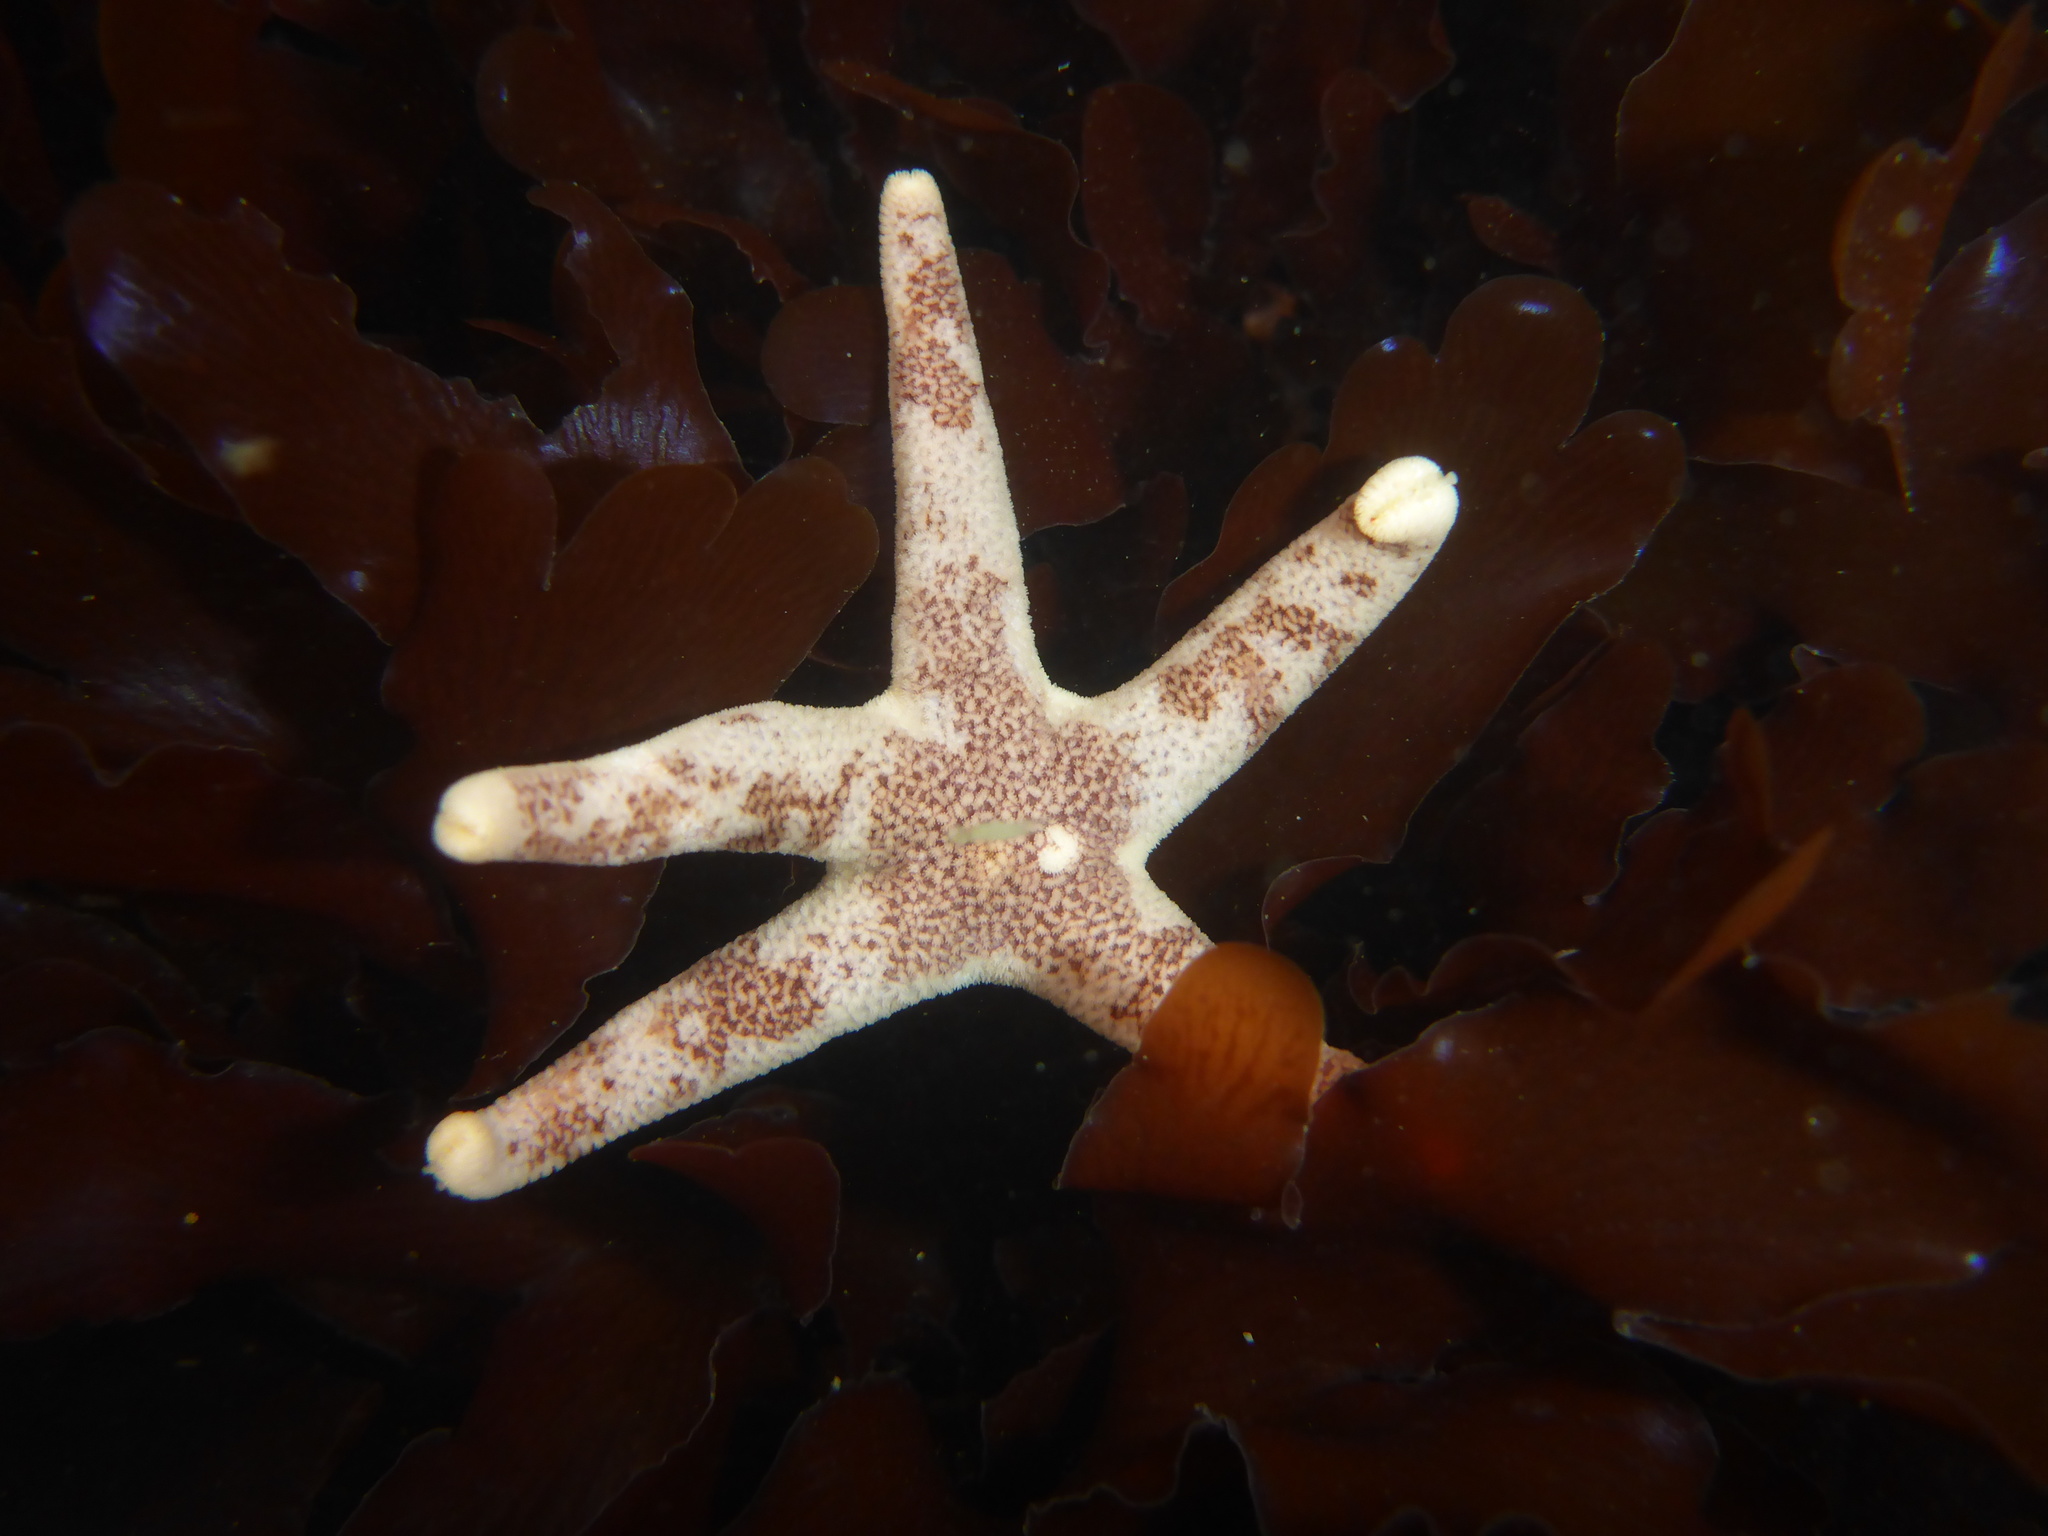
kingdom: Animalia
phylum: Echinodermata
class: Asteroidea
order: Spinulosida
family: Echinasteridae
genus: Henricia
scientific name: Henricia pumila
